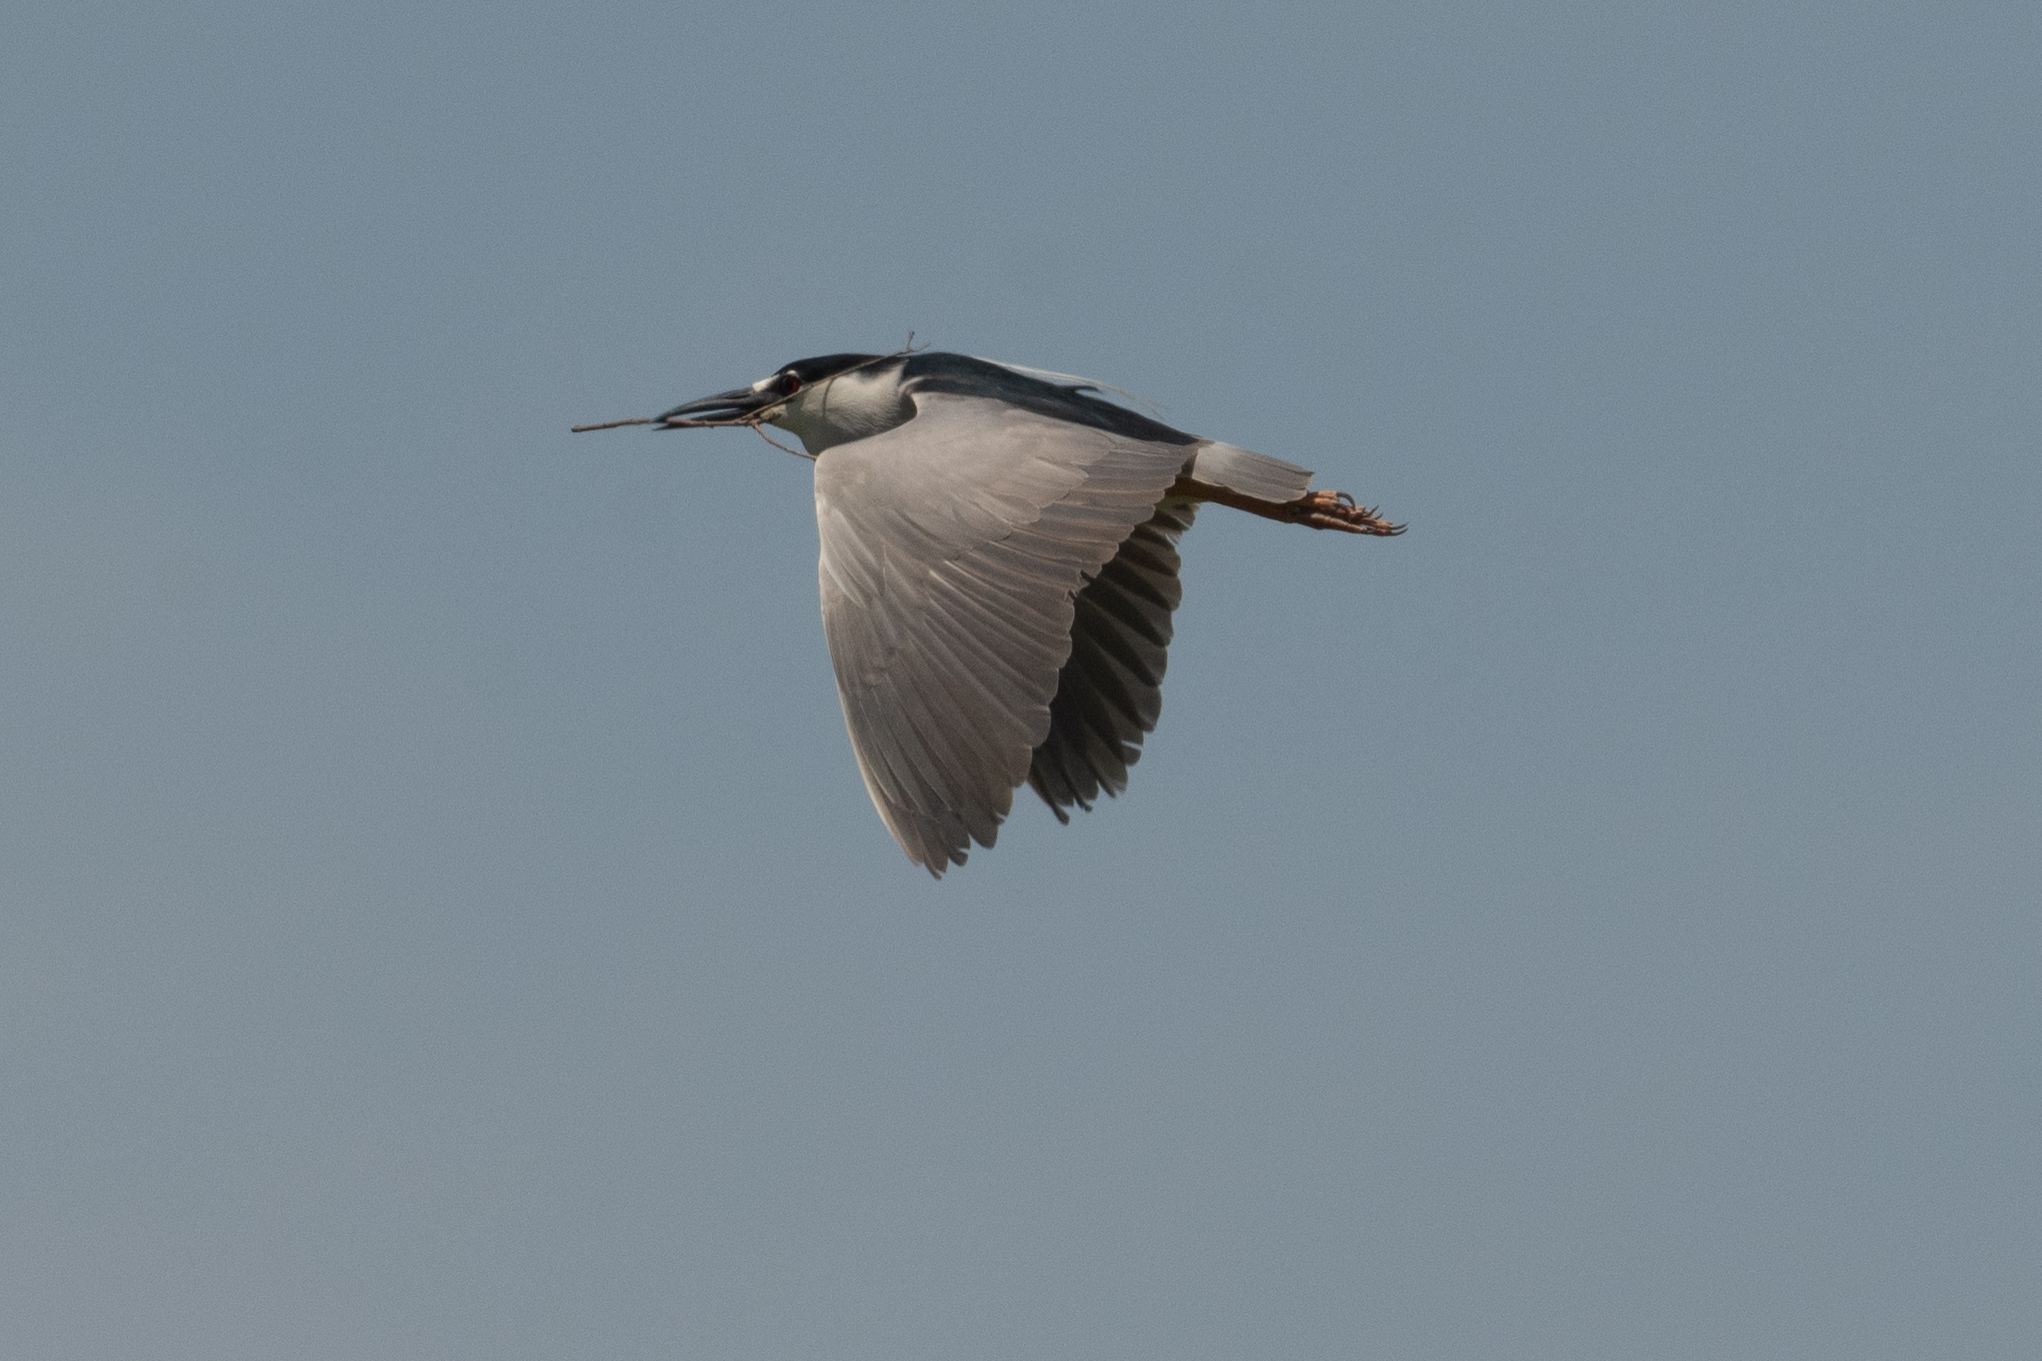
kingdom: Animalia
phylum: Chordata
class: Aves
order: Pelecaniformes
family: Ardeidae
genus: Nycticorax
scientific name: Nycticorax nycticorax
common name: Black-crowned night heron
